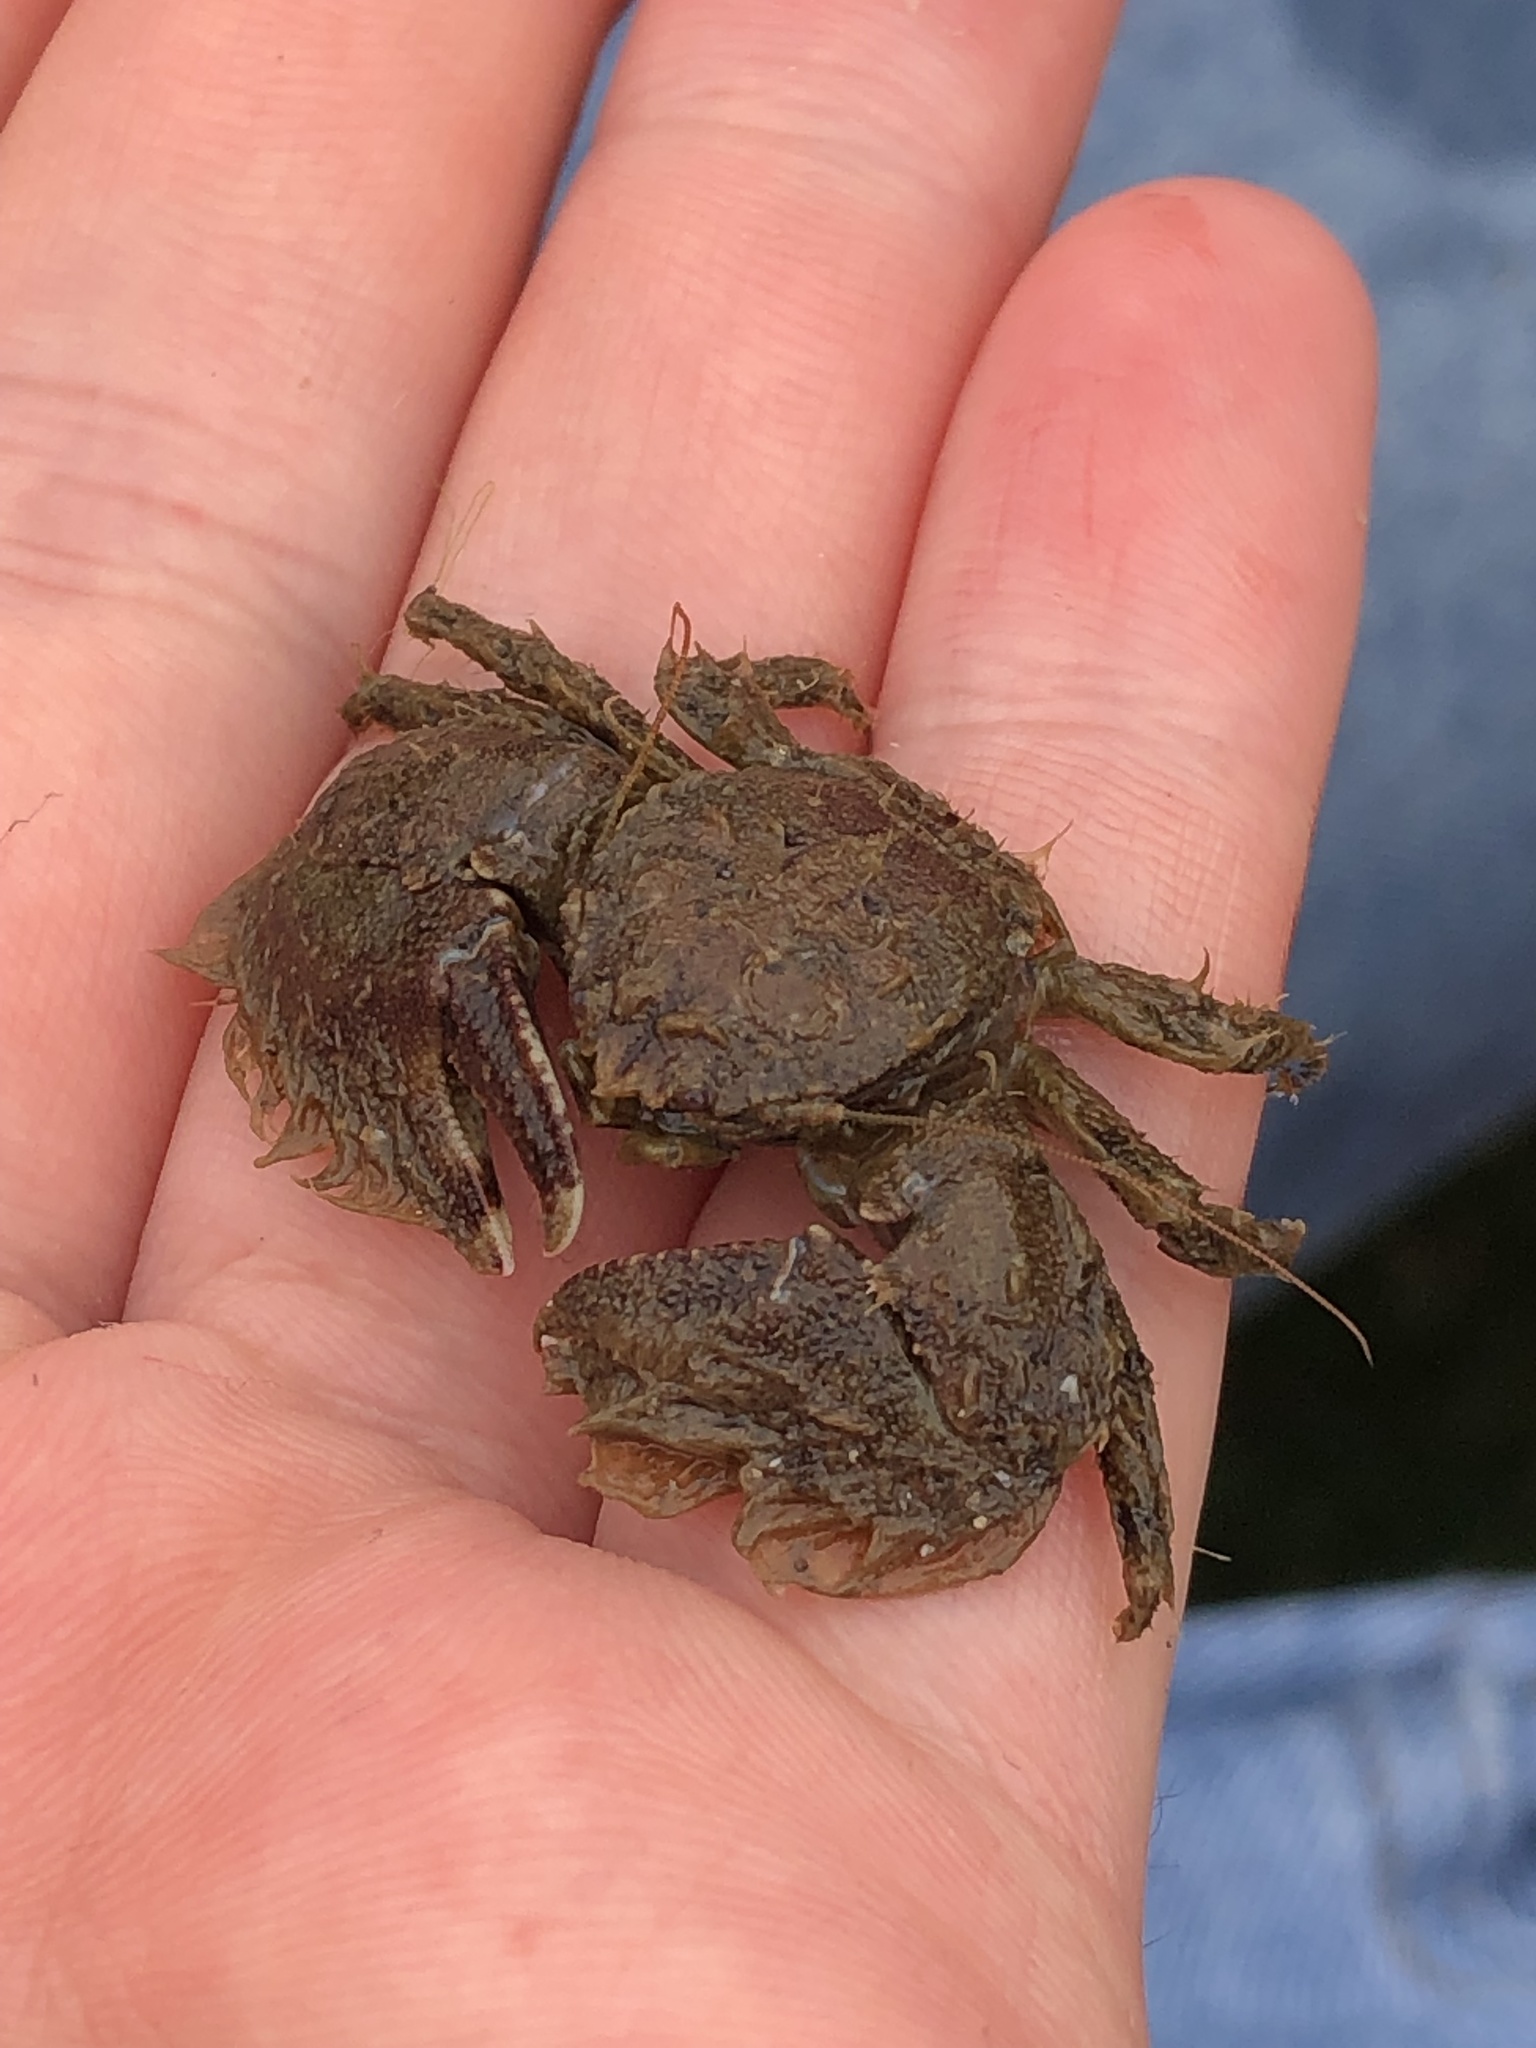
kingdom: Animalia
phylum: Arthropoda
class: Malacostraca
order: Decapoda
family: Porcellanidae
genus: Porcellana
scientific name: Porcellana platycheles
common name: Porcelain crab
